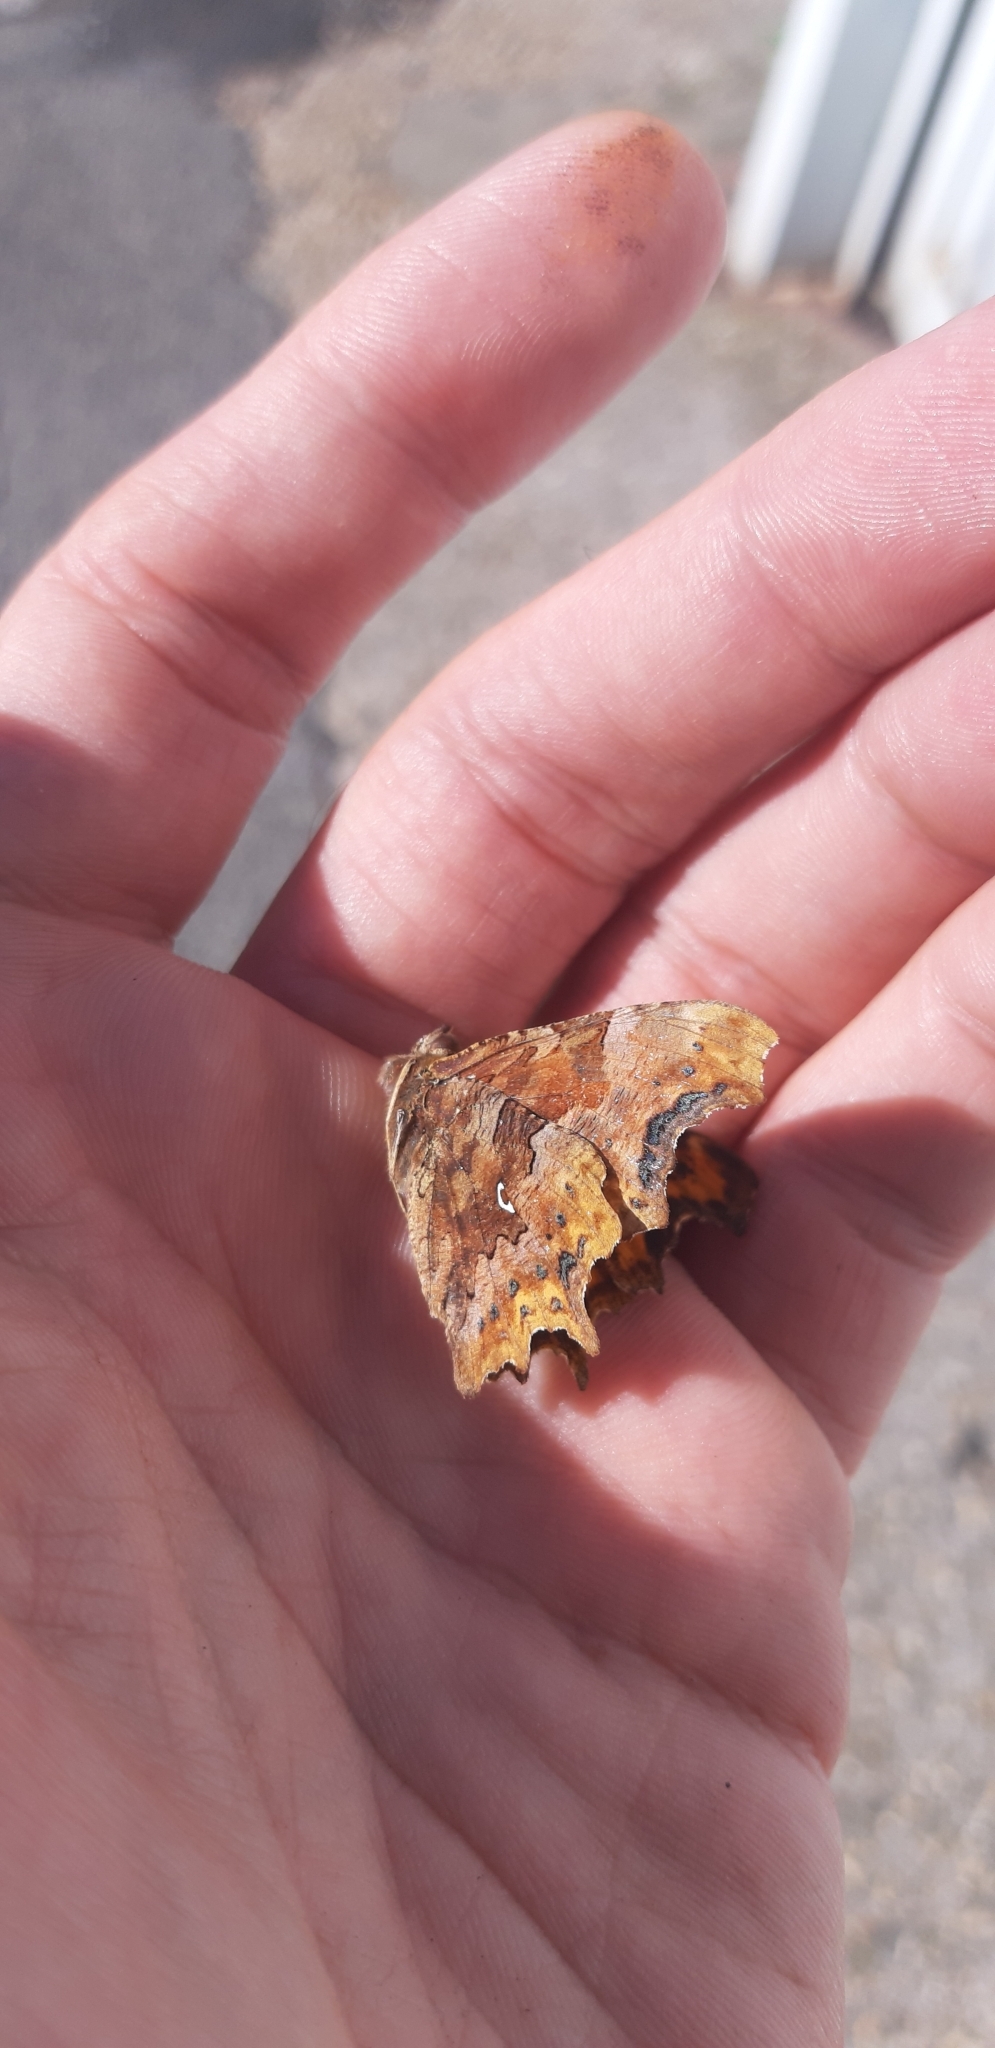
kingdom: Animalia
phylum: Arthropoda
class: Insecta
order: Lepidoptera
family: Nymphalidae
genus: Polygonia
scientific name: Polygonia c-album
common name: Comma
